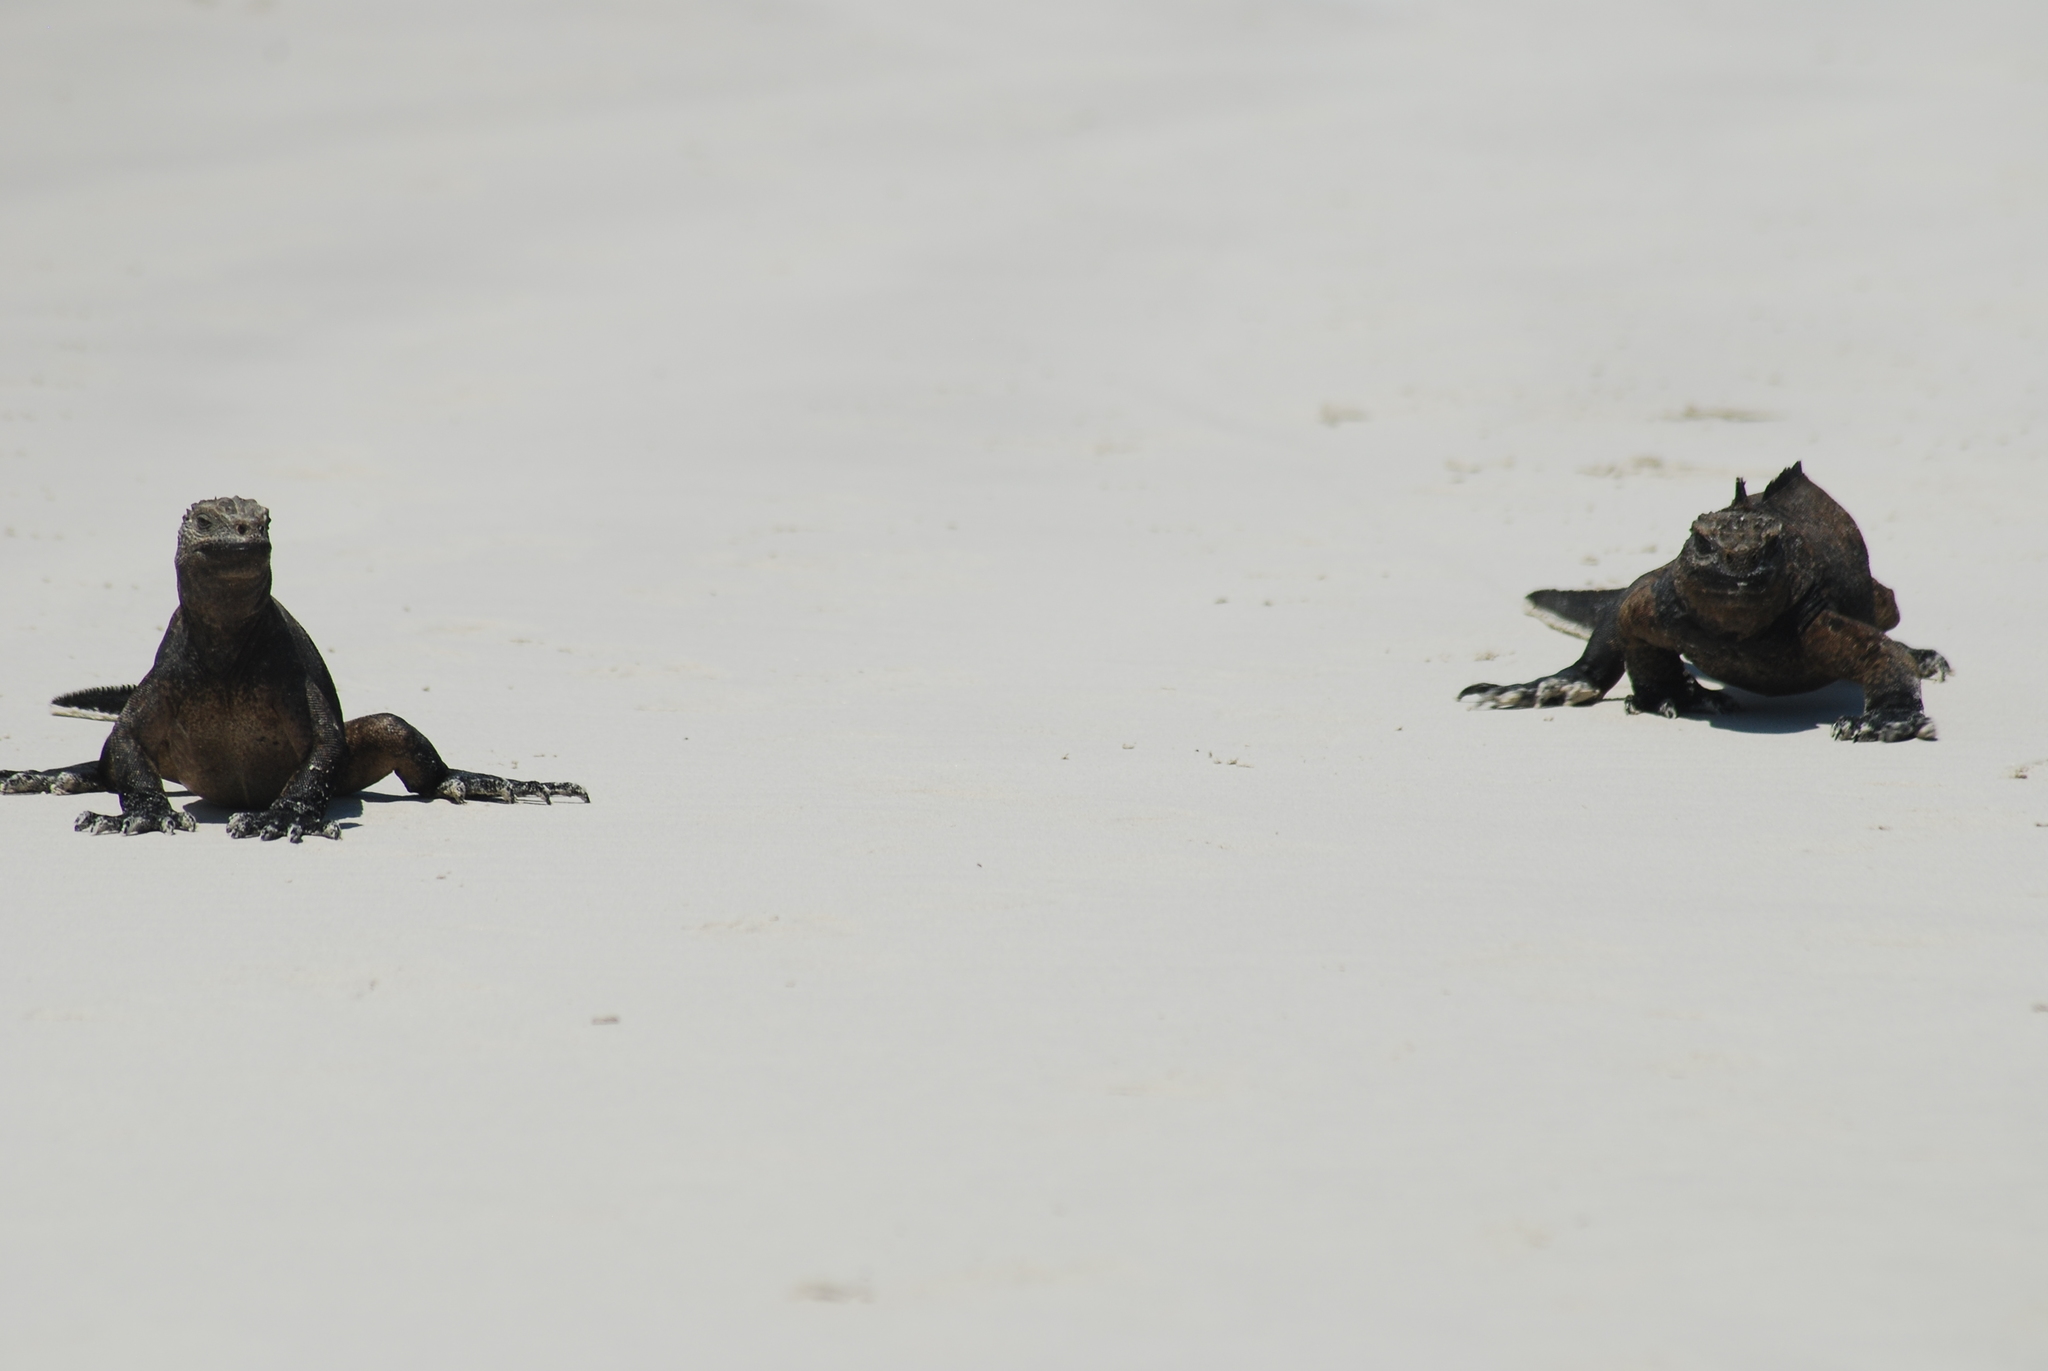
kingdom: Animalia
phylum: Chordata
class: Squamata
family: Iguanidae
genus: Amblyrhynchus
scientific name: Amblyrhynchus cristatus
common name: Marine iguana
